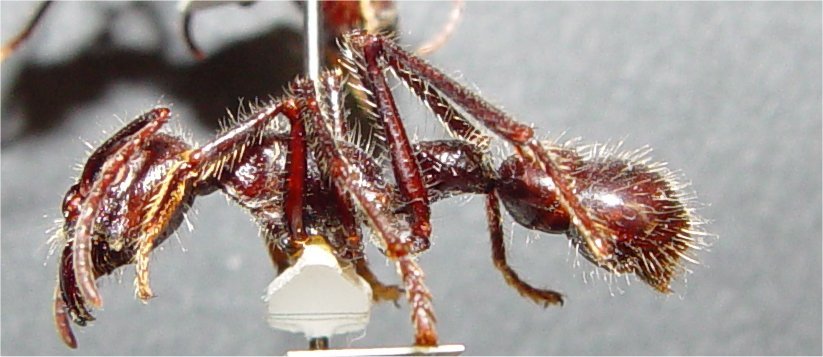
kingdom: Animalia
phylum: Arthropoda
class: Insecta
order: Hymenoptera
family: Formicidae
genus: Paraponera
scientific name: Paraponera clavata
